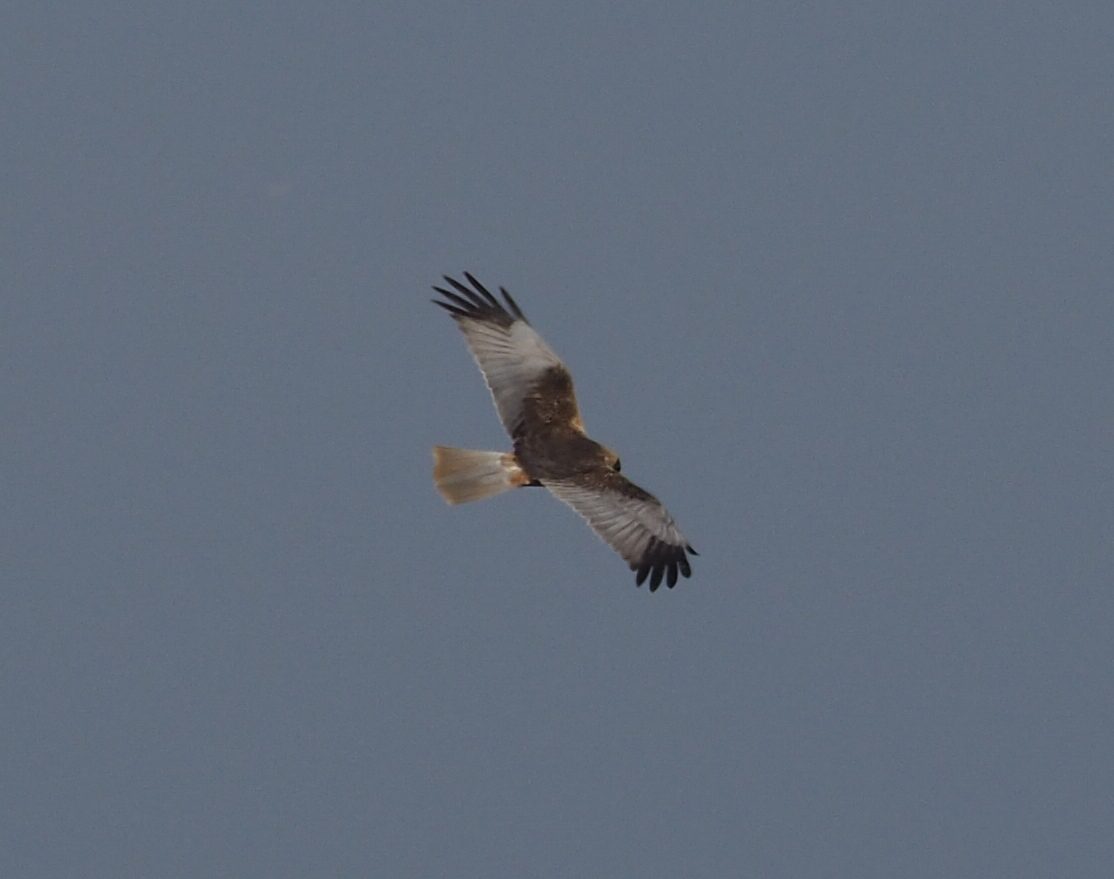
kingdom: Animalia
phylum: Chordata
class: Aves
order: Accipitriformes
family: Accipitridae
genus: Circus
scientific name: Circus aeruginosus
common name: Western marsh harrier
